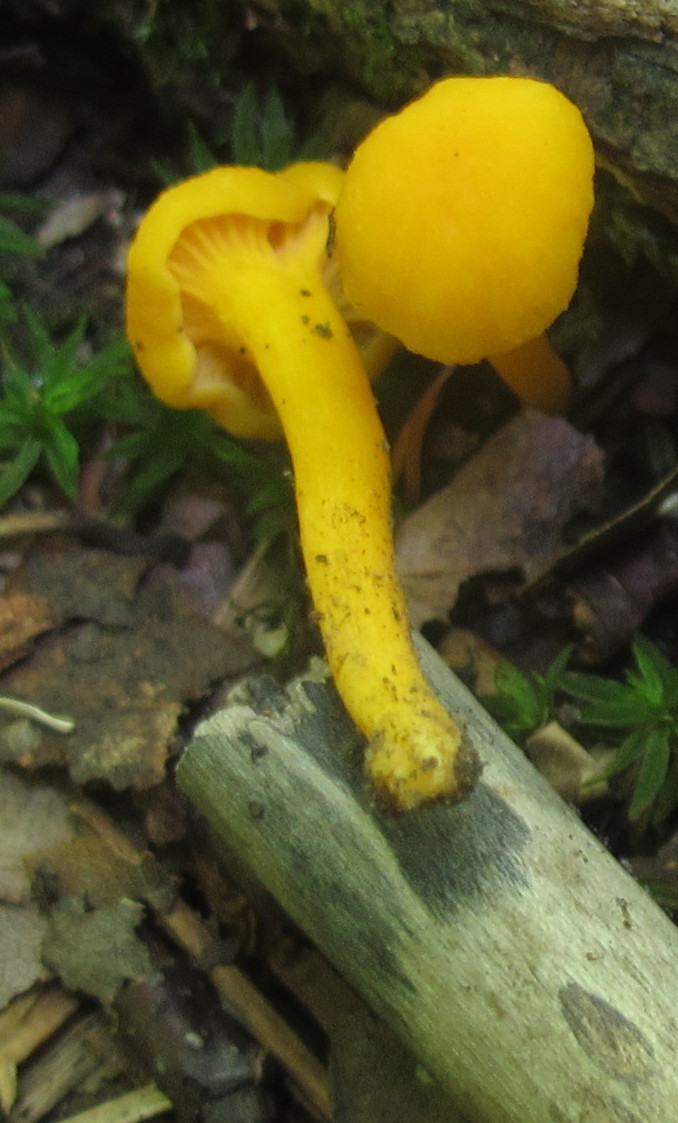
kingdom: Fungi
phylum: Basidiomycota
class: Agaricomycetes
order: Cantharellales
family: Hydnaceae
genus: Cantharellus
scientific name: Cantharellus minor
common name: Small chanterelle
